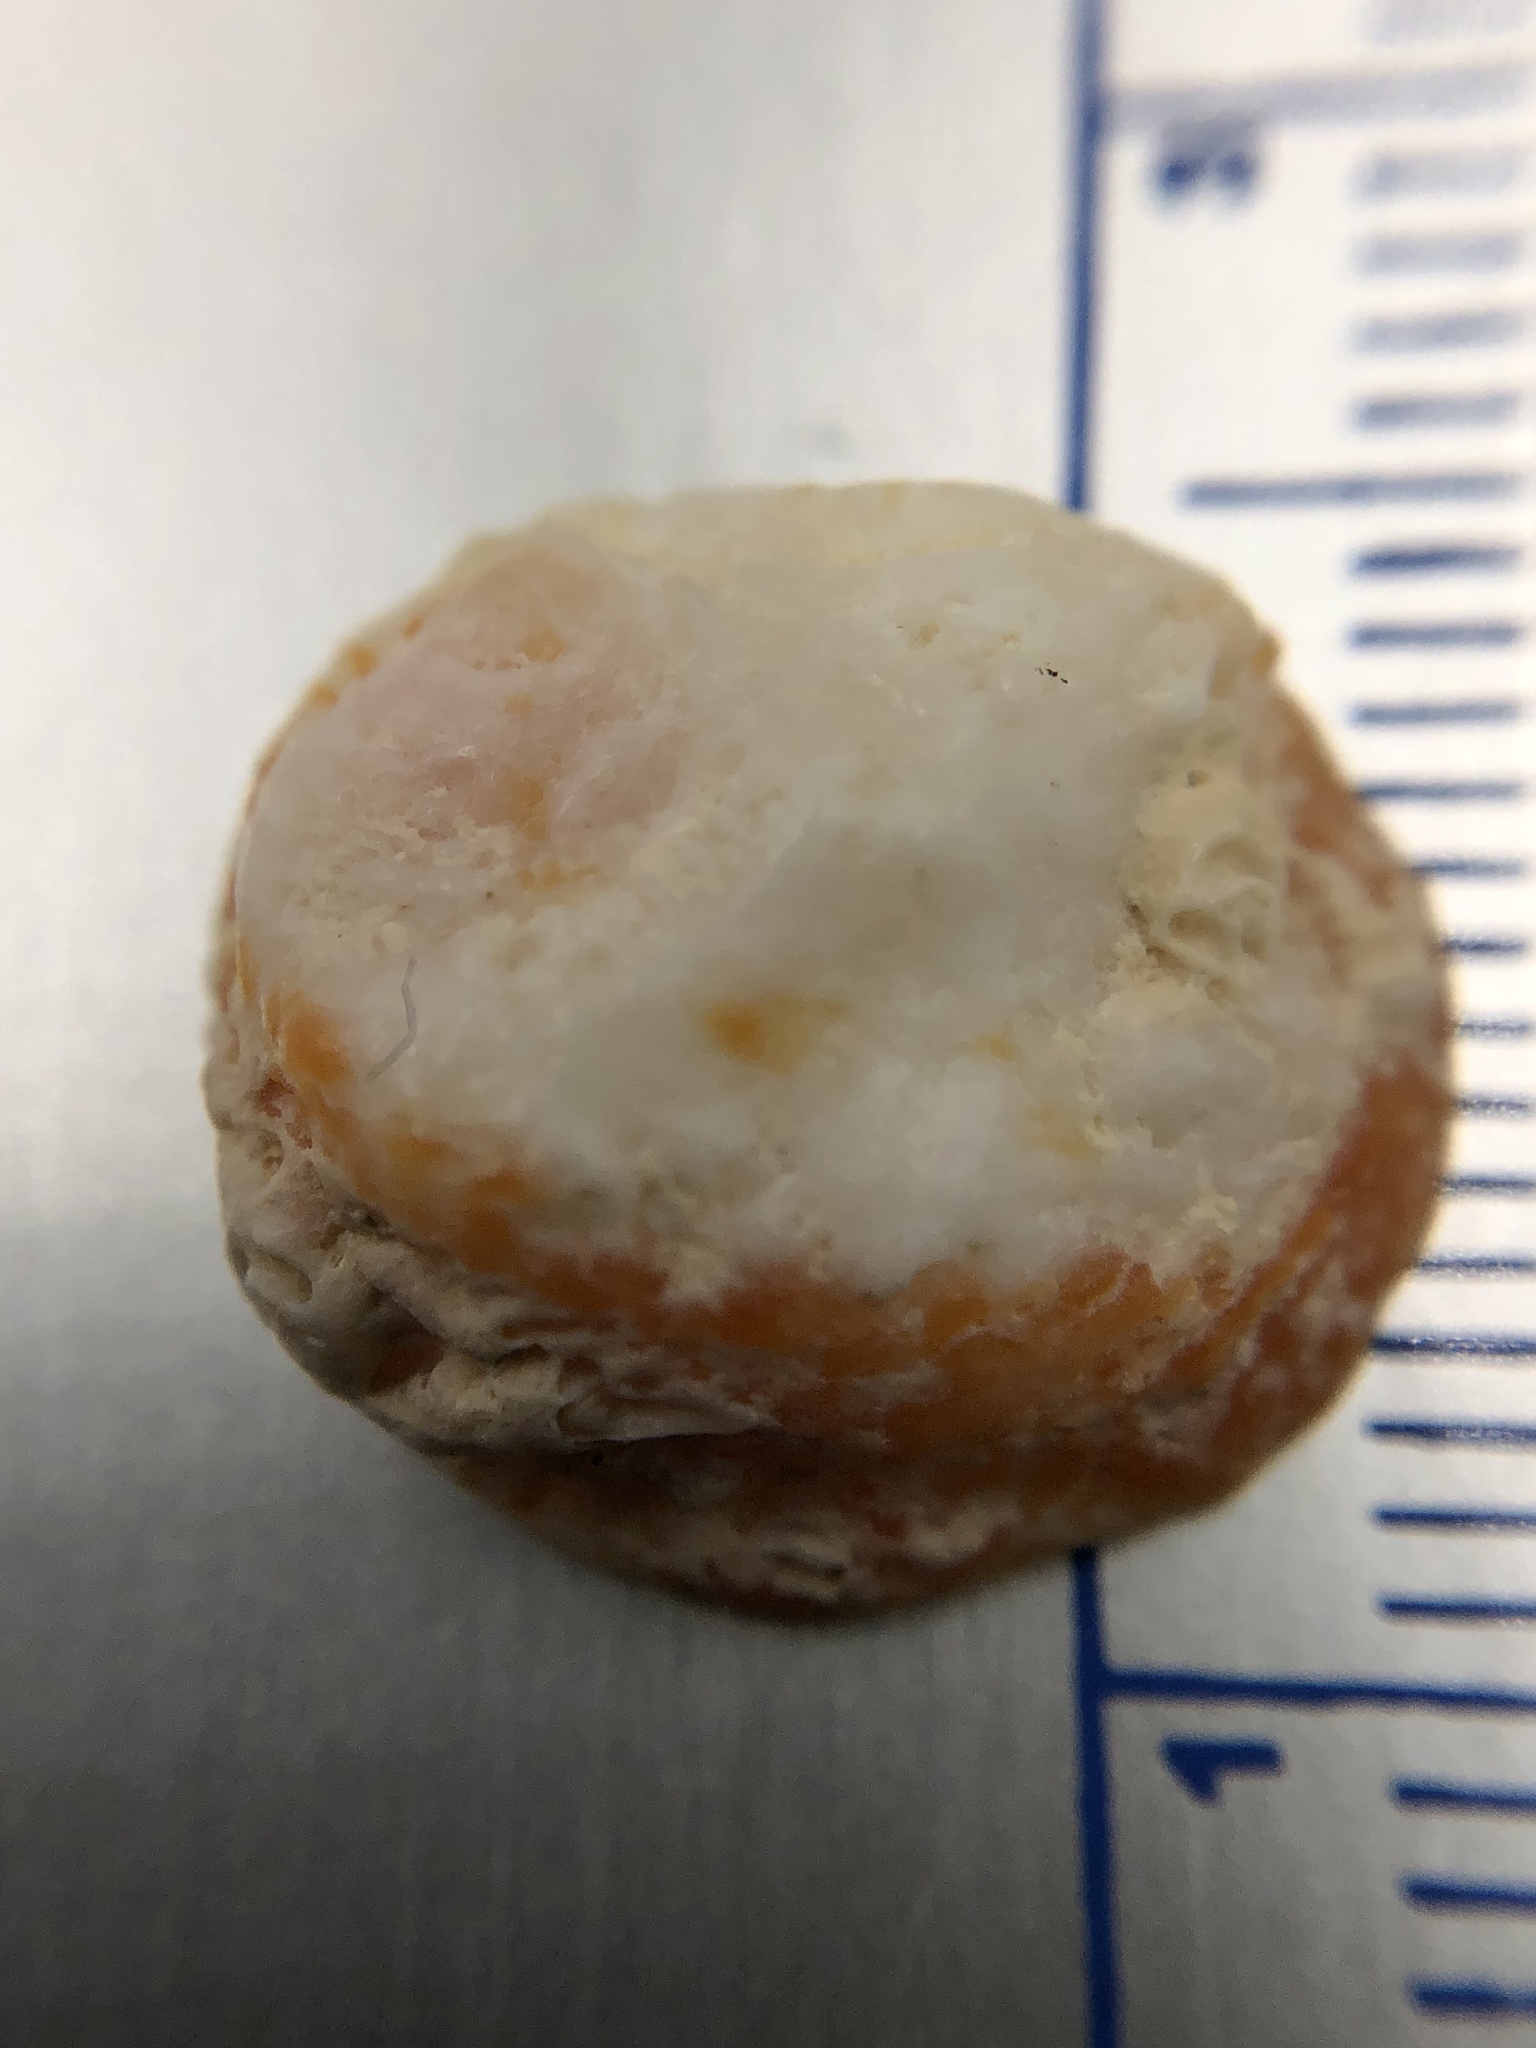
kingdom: Animalia
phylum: Mollusca
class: Bivalvia
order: Venerida
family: Chamidae
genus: Chama
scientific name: Chama congregata
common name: Corrugate jewelbox
